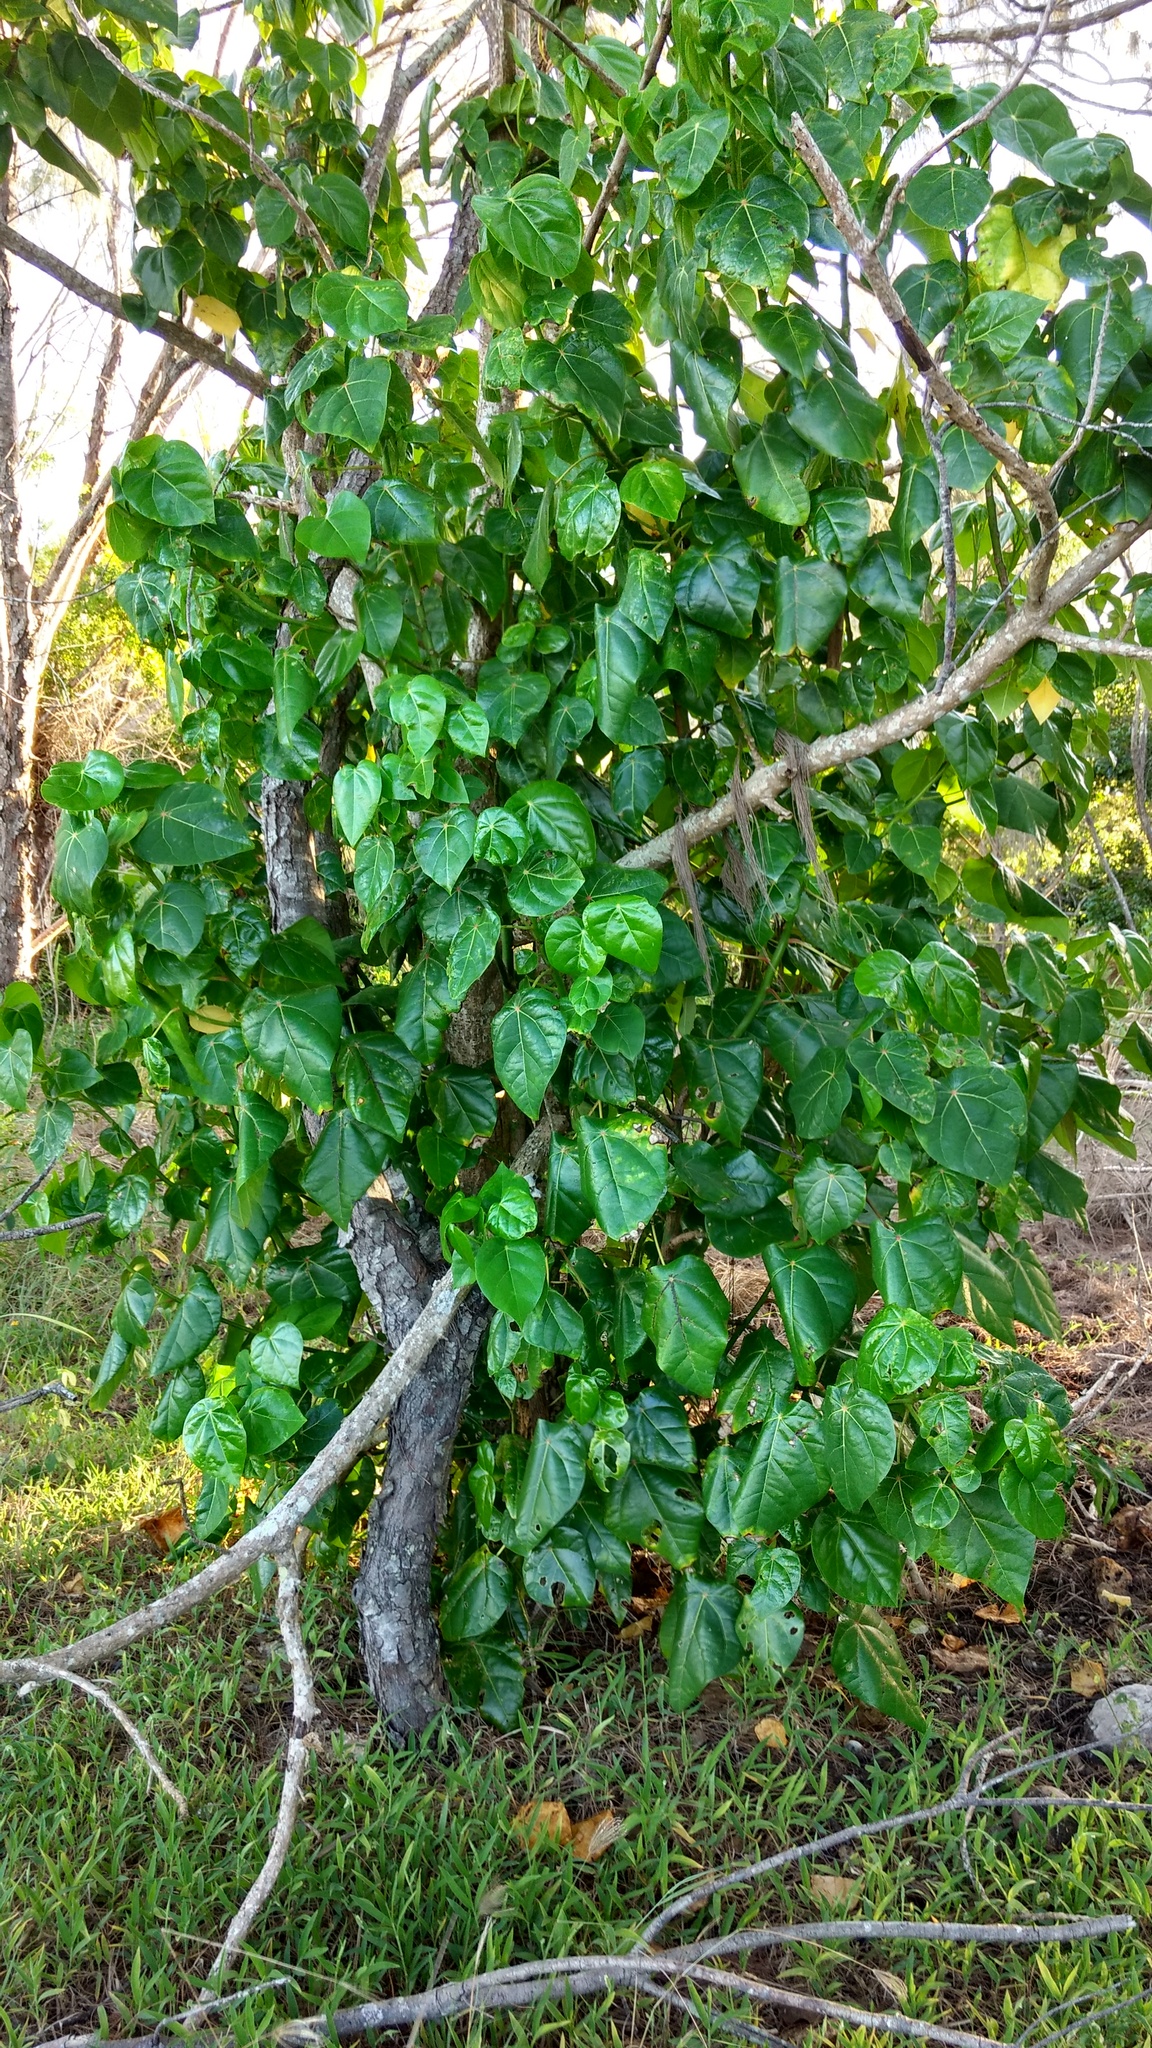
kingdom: Plantae
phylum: Tracheophyta
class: Magnoliopsida
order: Laurales
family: Hernandiaceae
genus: Hernandia
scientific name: Hernandia nymphaeifolia
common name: Sea hearse
